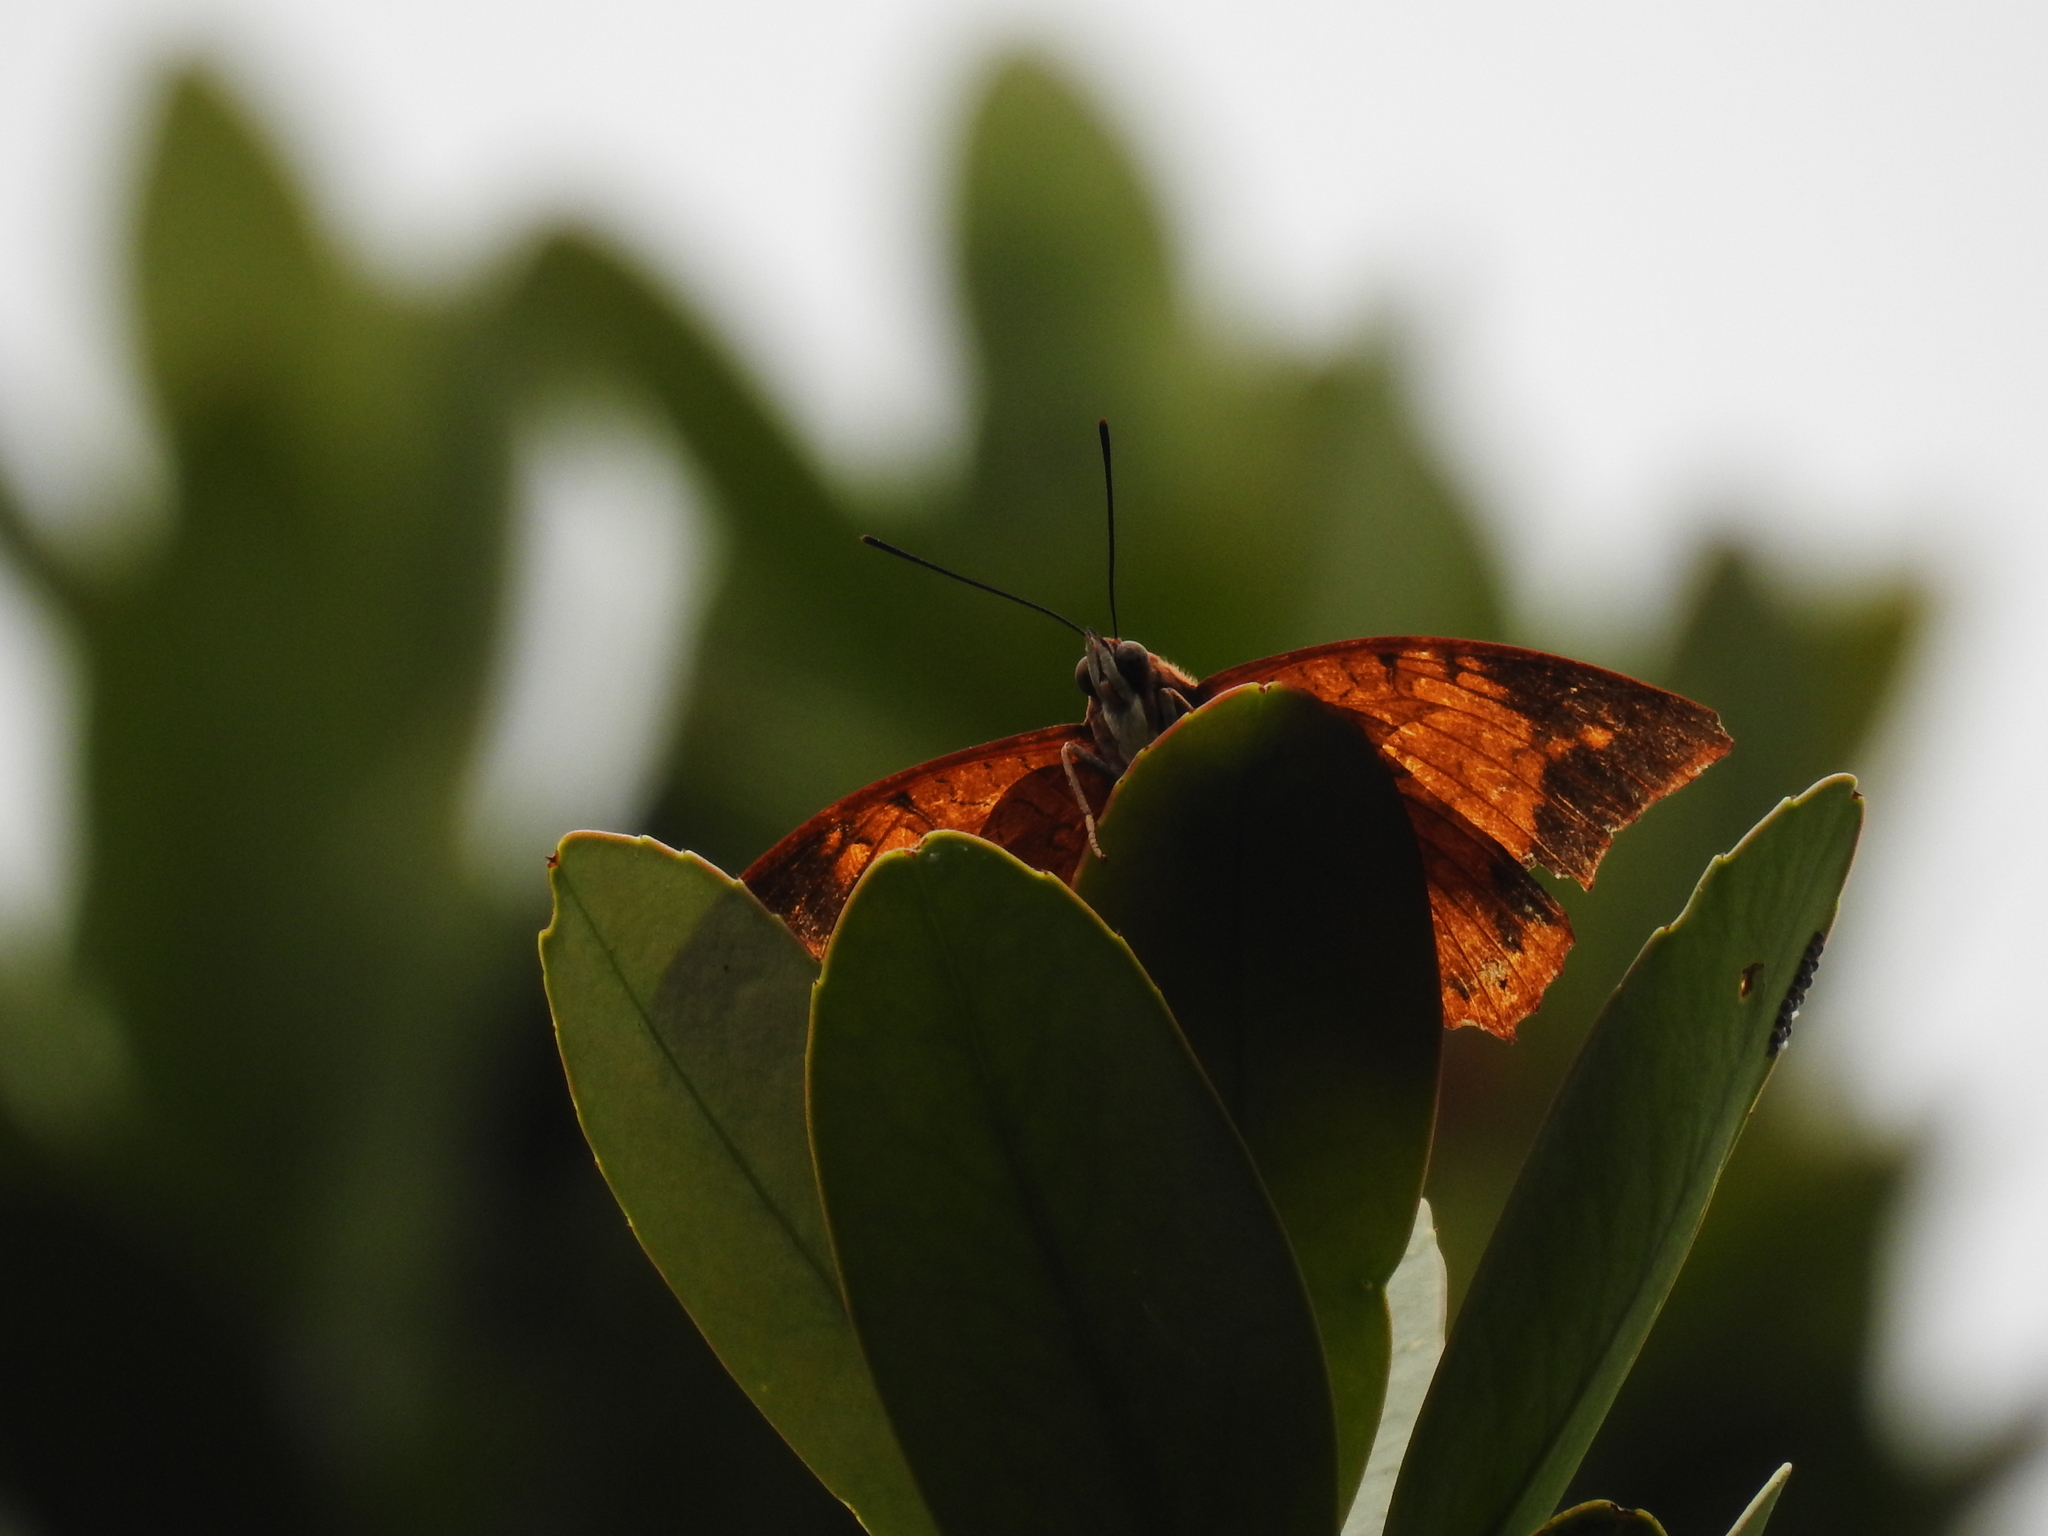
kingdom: Animalia
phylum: Arthropoda
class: Insecta
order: Lepidoptera
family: Nymphalidae
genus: Charaxes
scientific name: Charaxes bernardus
